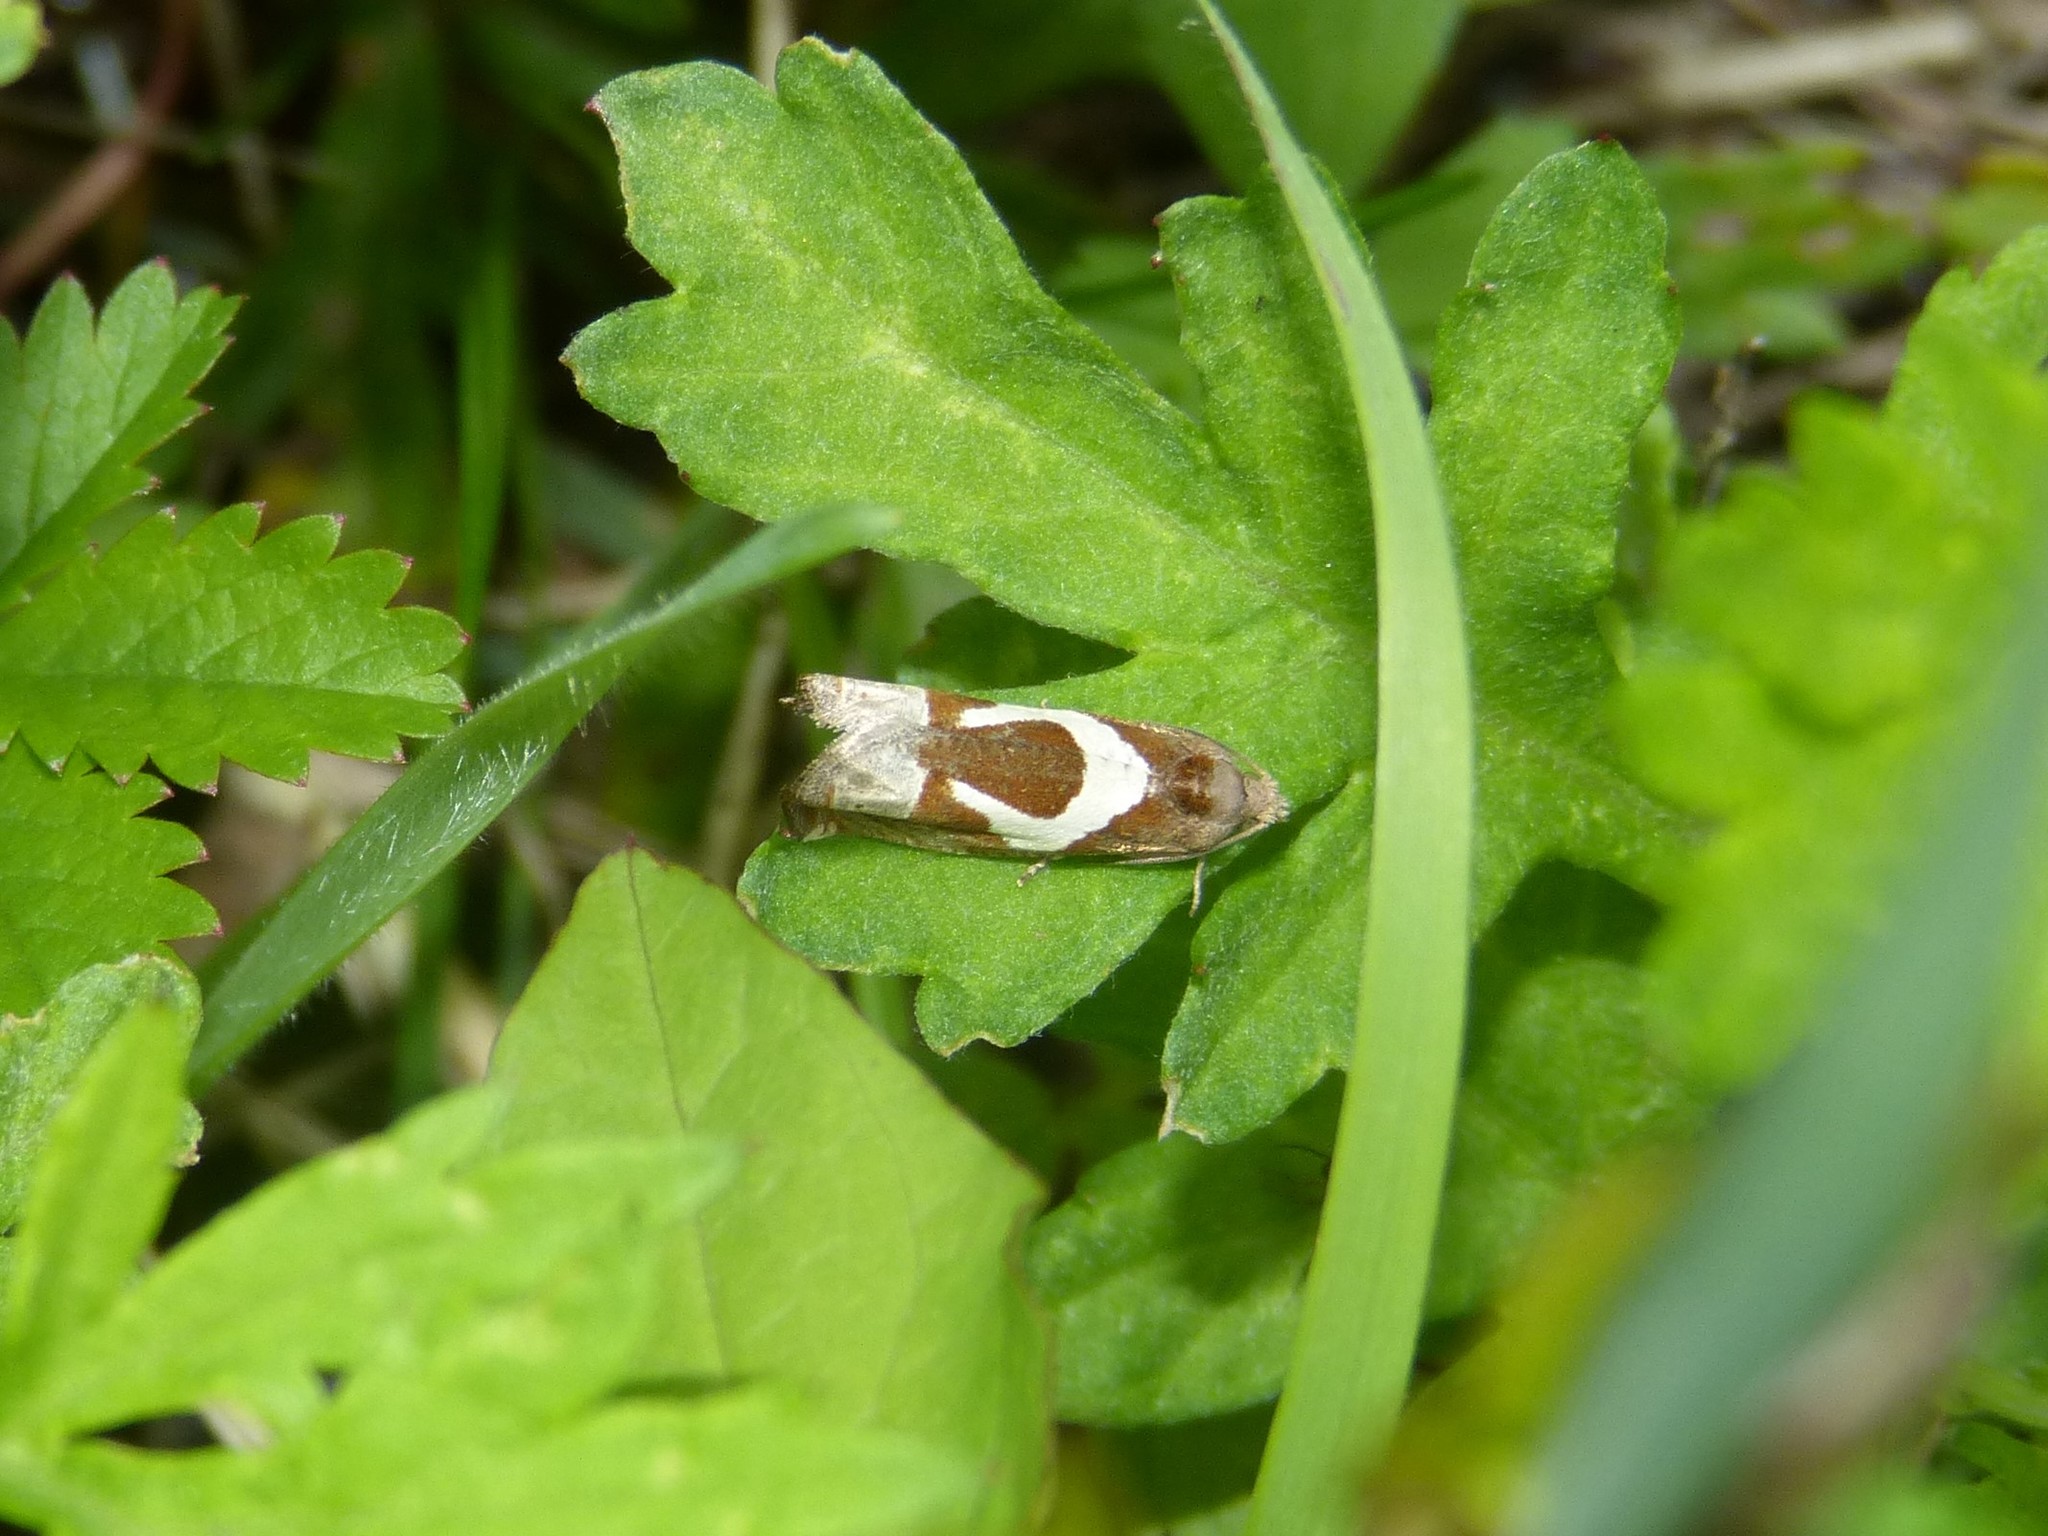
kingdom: Animalia
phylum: Arthropoda
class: Insecta
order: Lepidoptera
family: Tortricidae
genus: Epiblema
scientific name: Epiblema foenella
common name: White-foot bell
